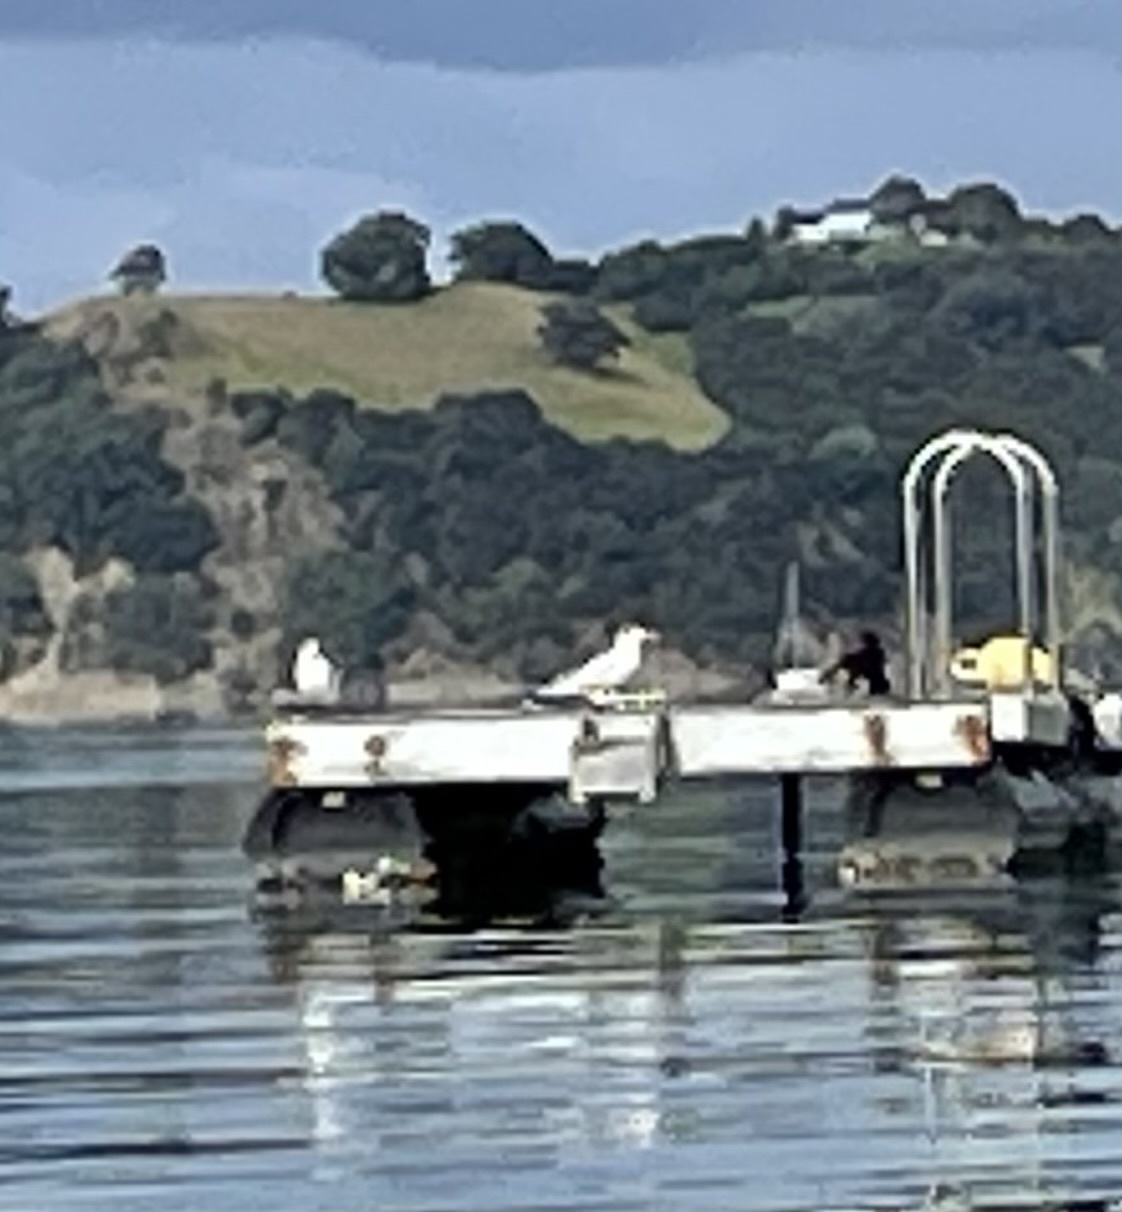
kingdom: Animalia
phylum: Chordata
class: Aves
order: Charadriiformes
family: Laridae
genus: Hydroprogne
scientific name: Hydroprogne caspia
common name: Caspian tern
